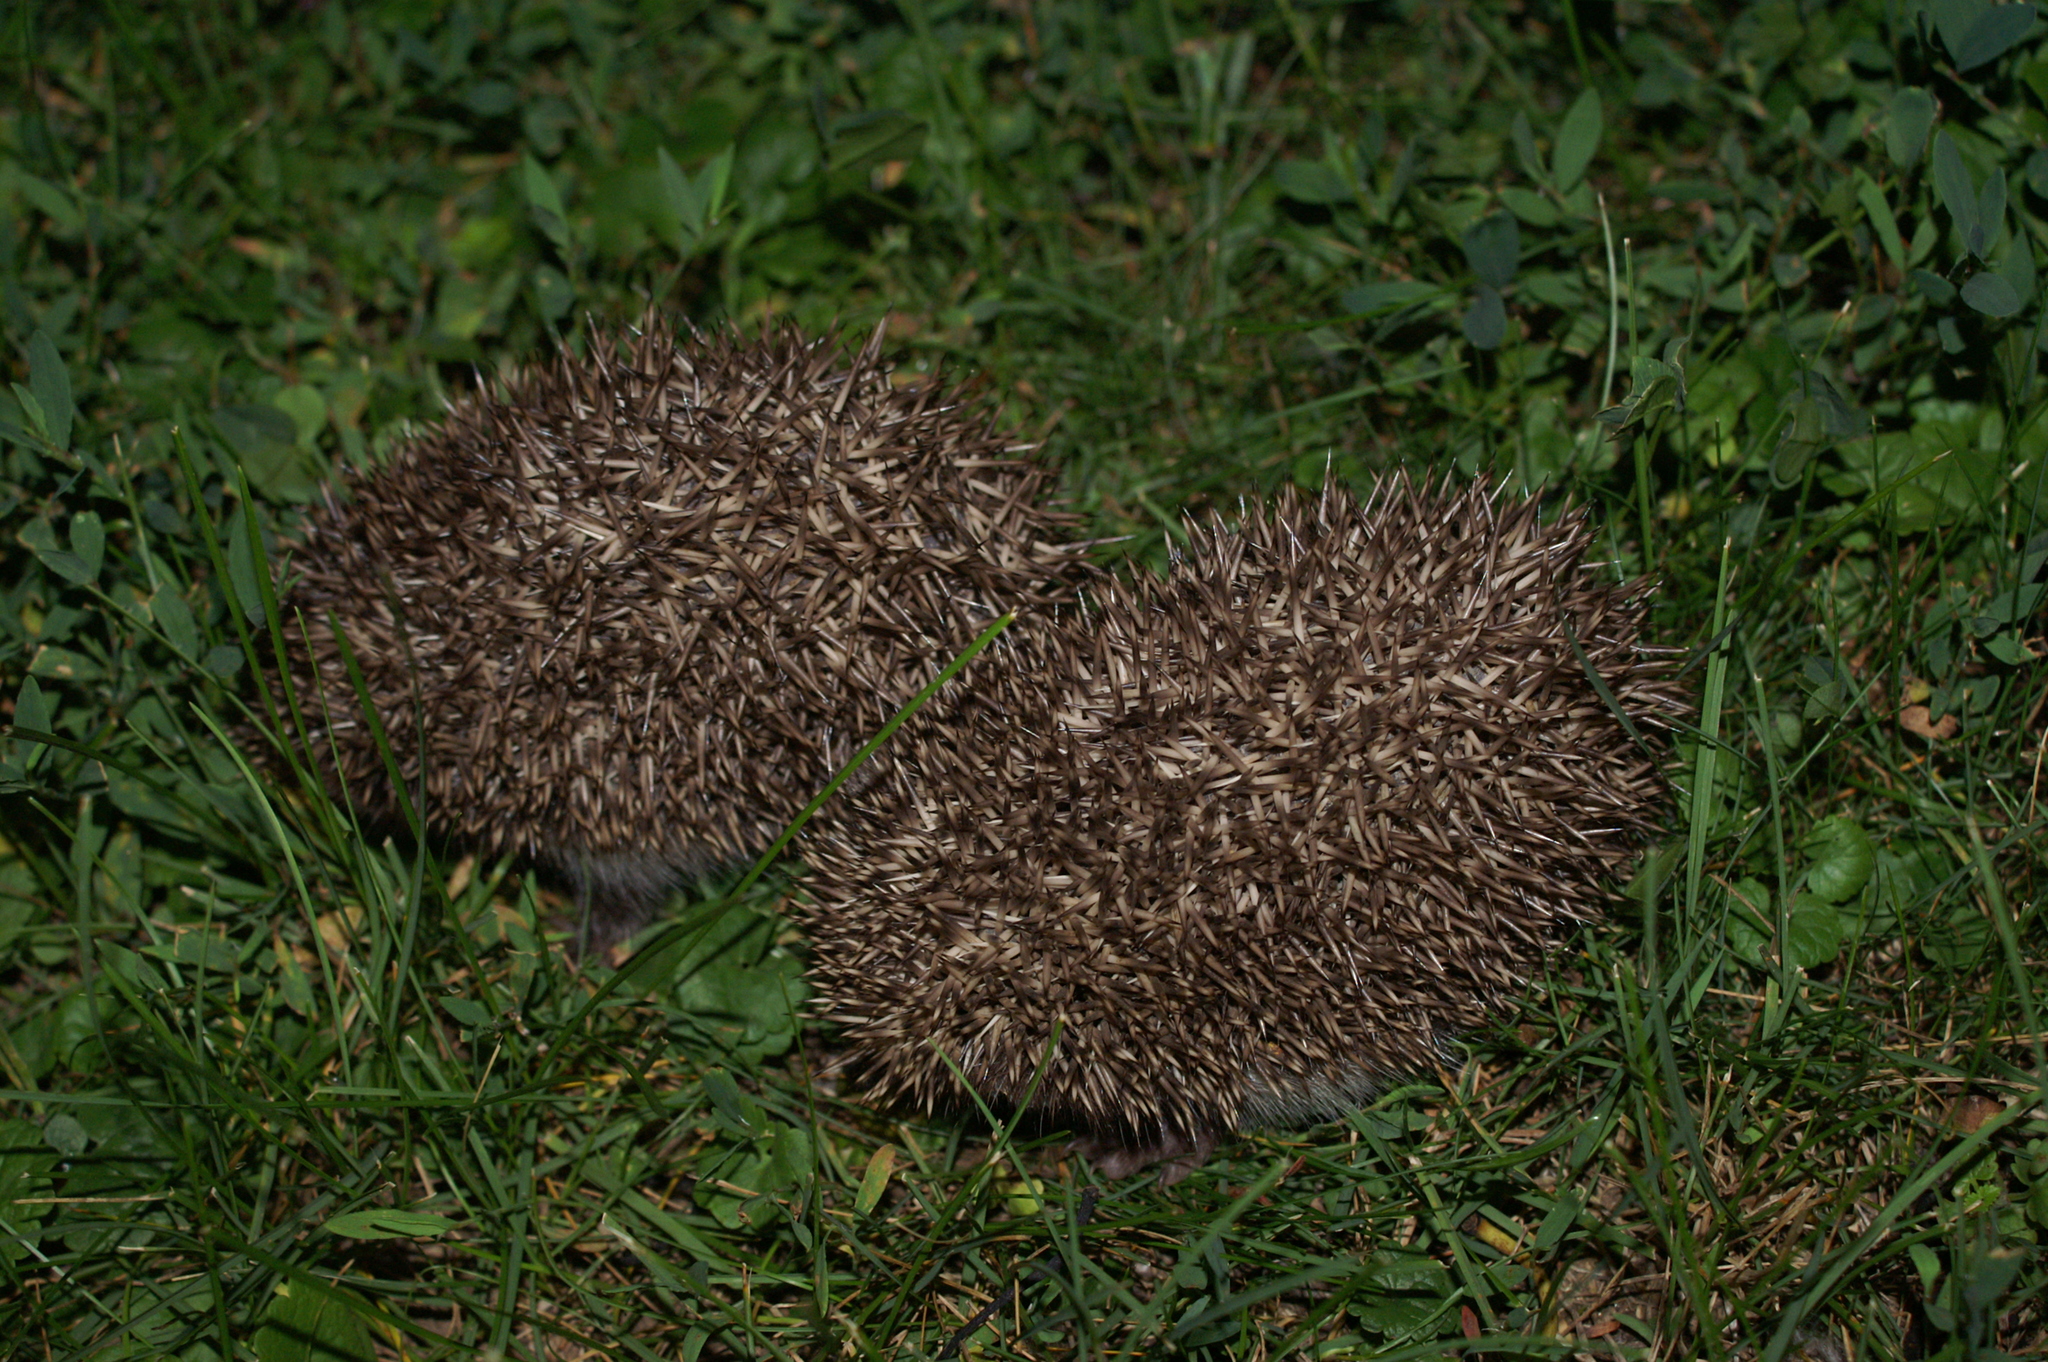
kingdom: Animalia
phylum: Chordata
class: Mammalia
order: Erinaceomorpha
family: Erinaceidae
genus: Erinaceus
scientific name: Erinaceus roumanicus
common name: Northern white-breasted hedgehog
